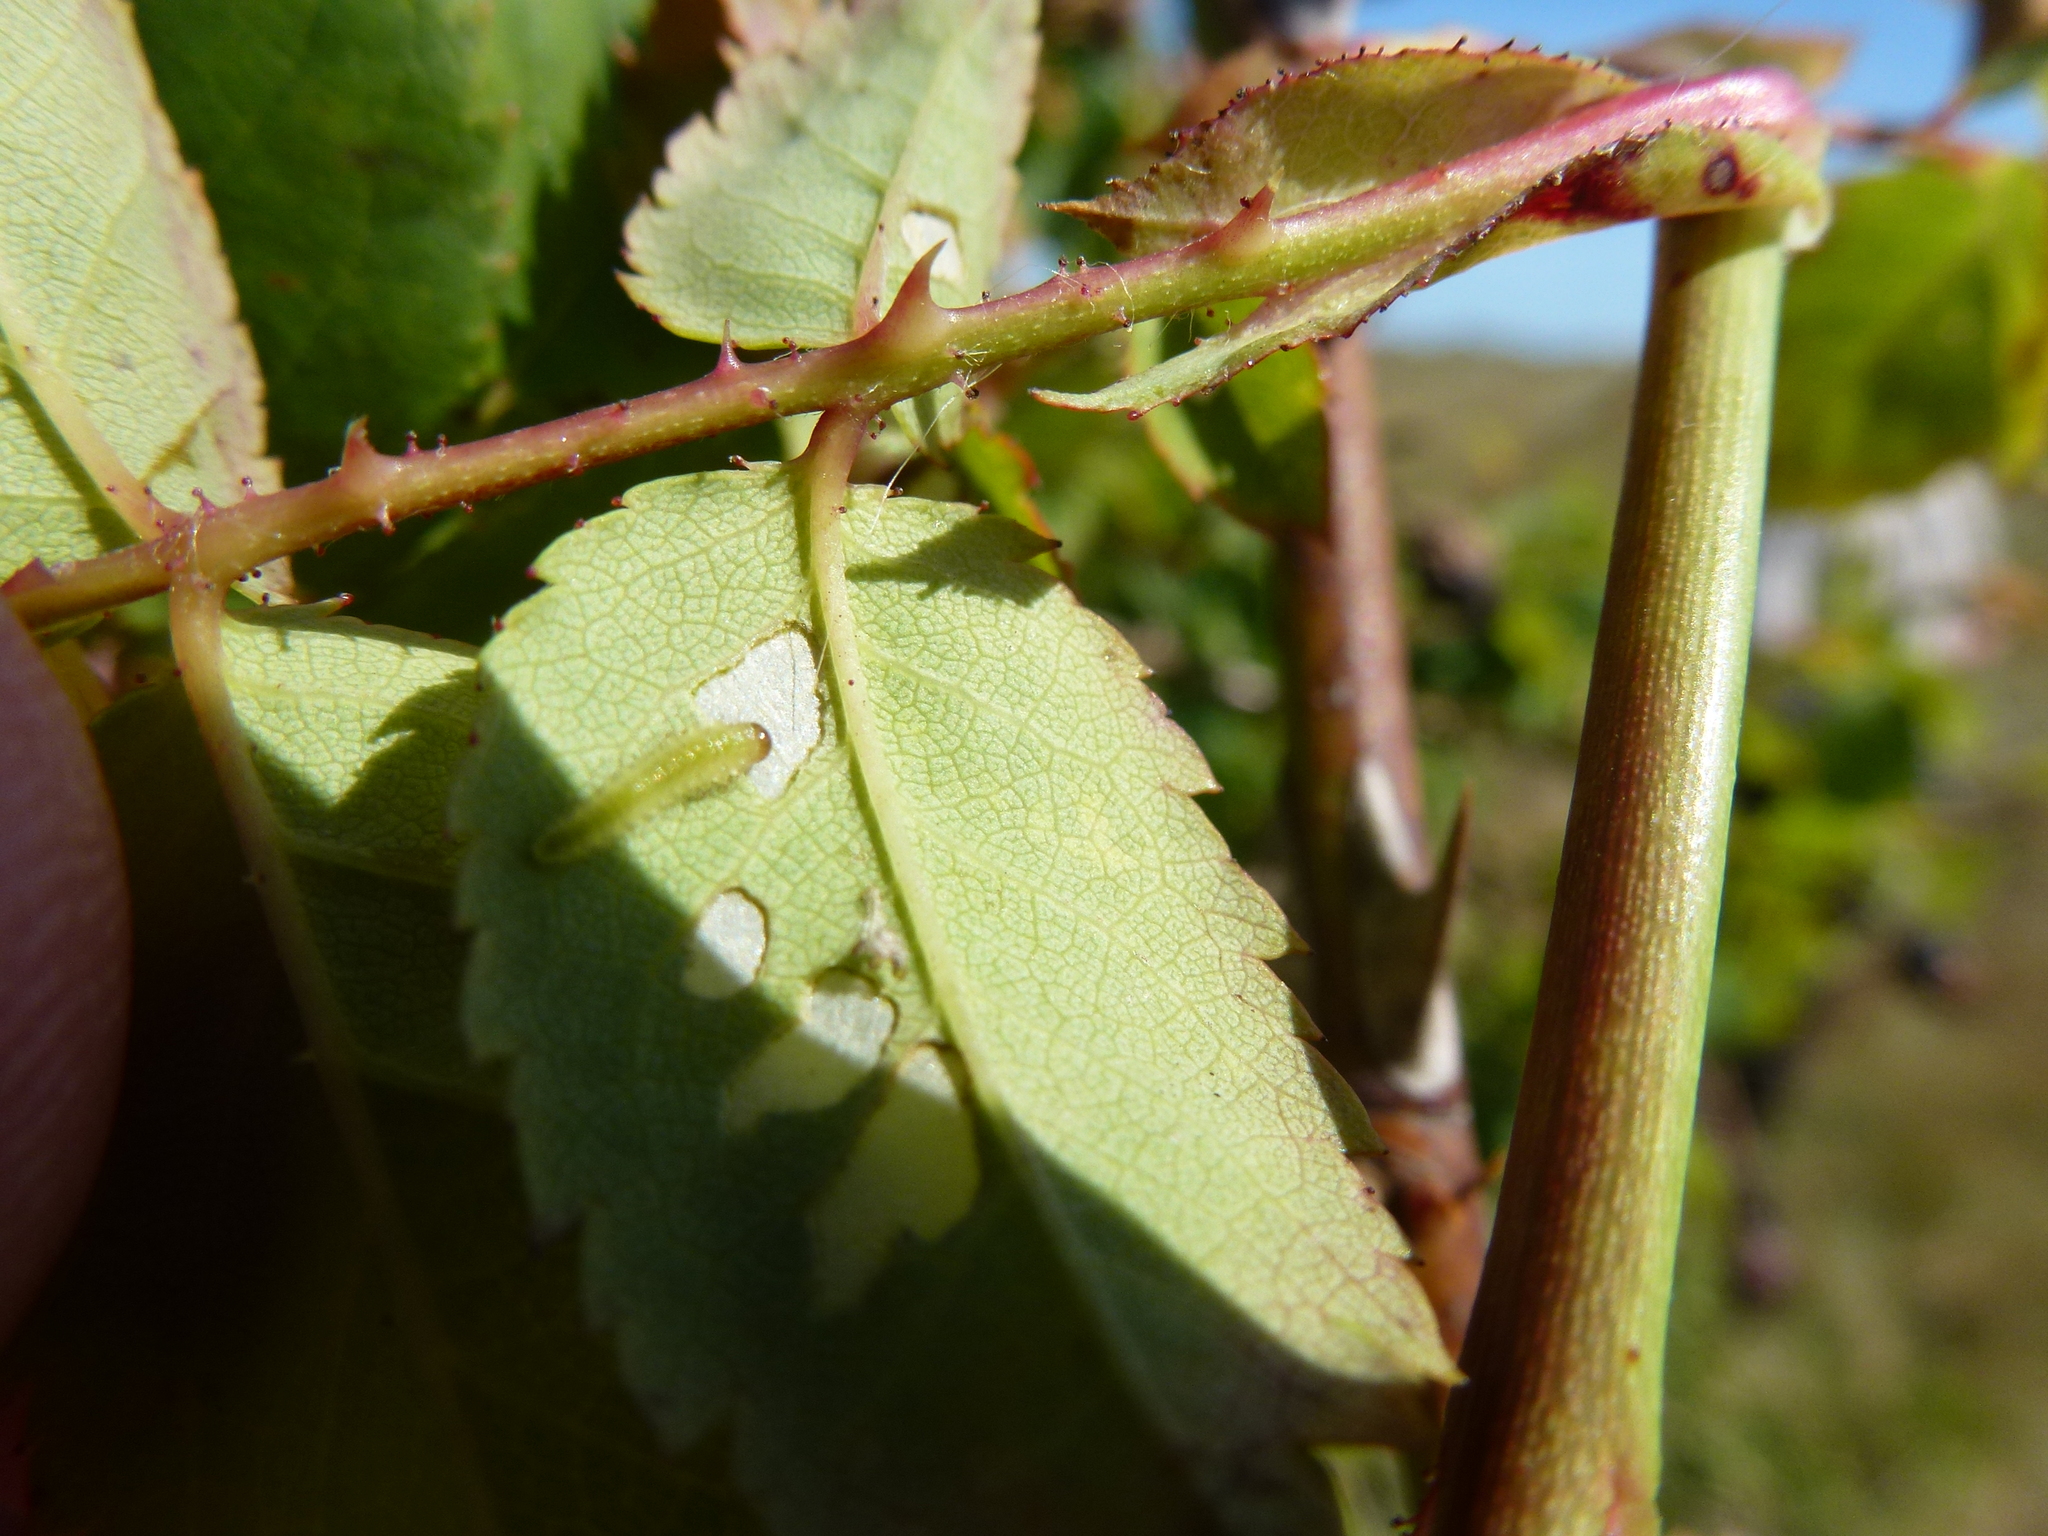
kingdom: Animalia
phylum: Arthropoda
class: Insecta
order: Hymenoptera
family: Tenthredinidae
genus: Cladius
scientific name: Cladius pectinicornis
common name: Sawfly
